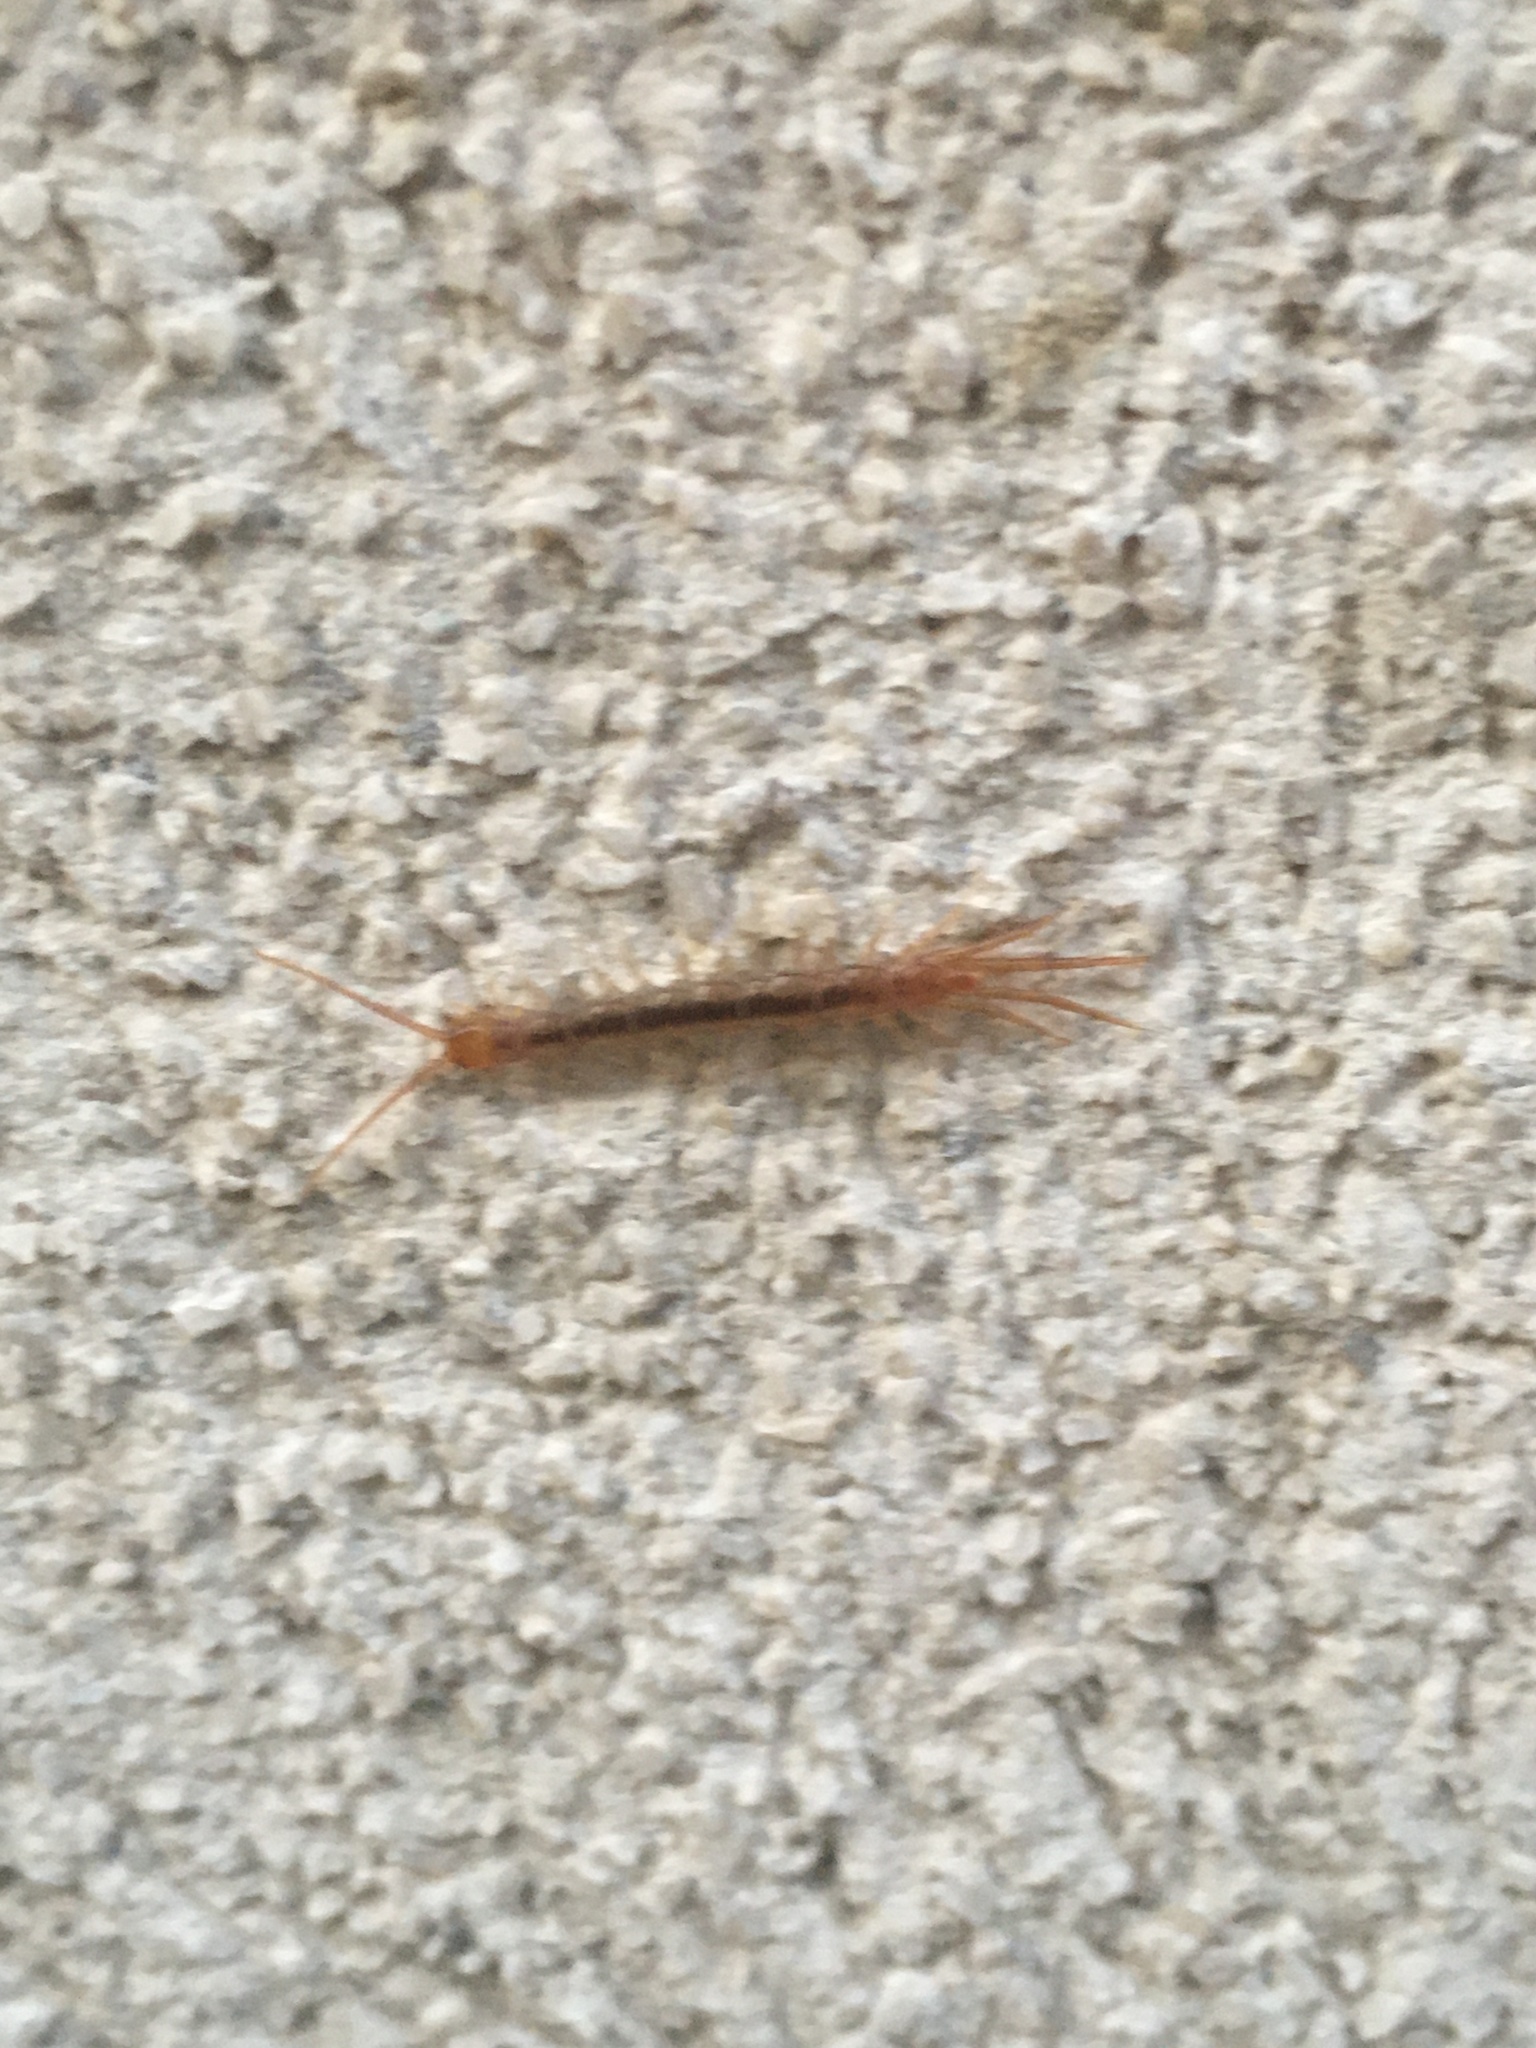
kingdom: Animalia
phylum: Arthropoda
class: Chilopoda
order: Lithobiomorpha
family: Lithobiidae
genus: Lithobius
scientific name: Lithobius
